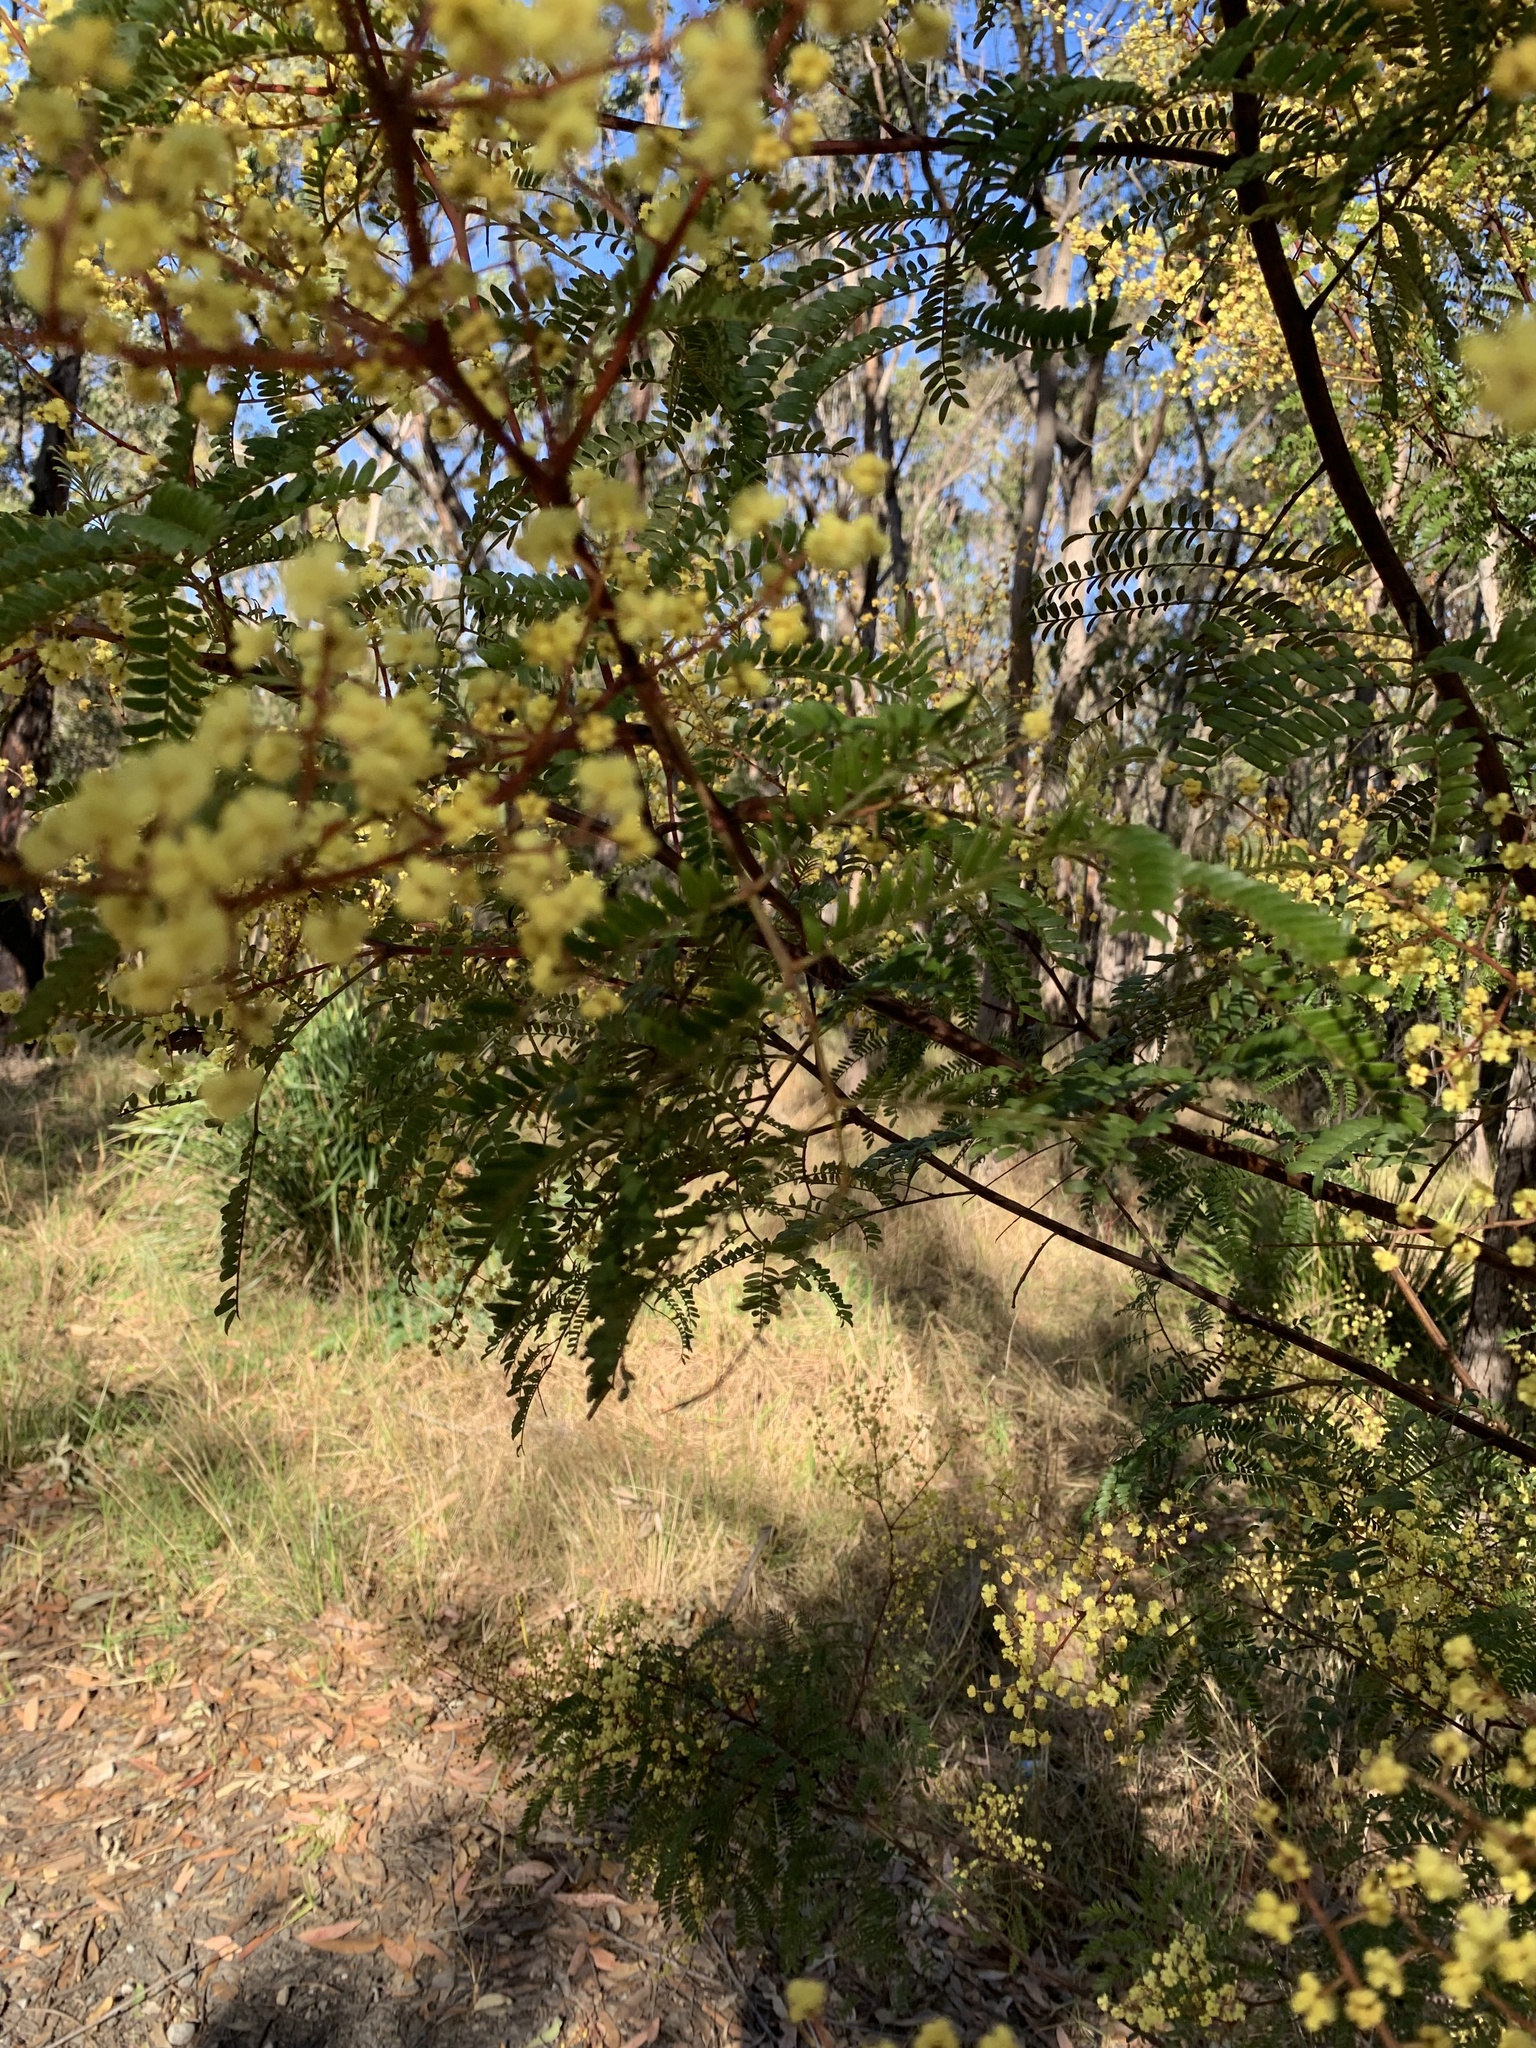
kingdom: Plantae
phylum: Tracheophyta
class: Magnoliopsida
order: Fabales
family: Fabaceae
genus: Acacia
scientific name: Acacia terminalis
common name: Cedar wattle
